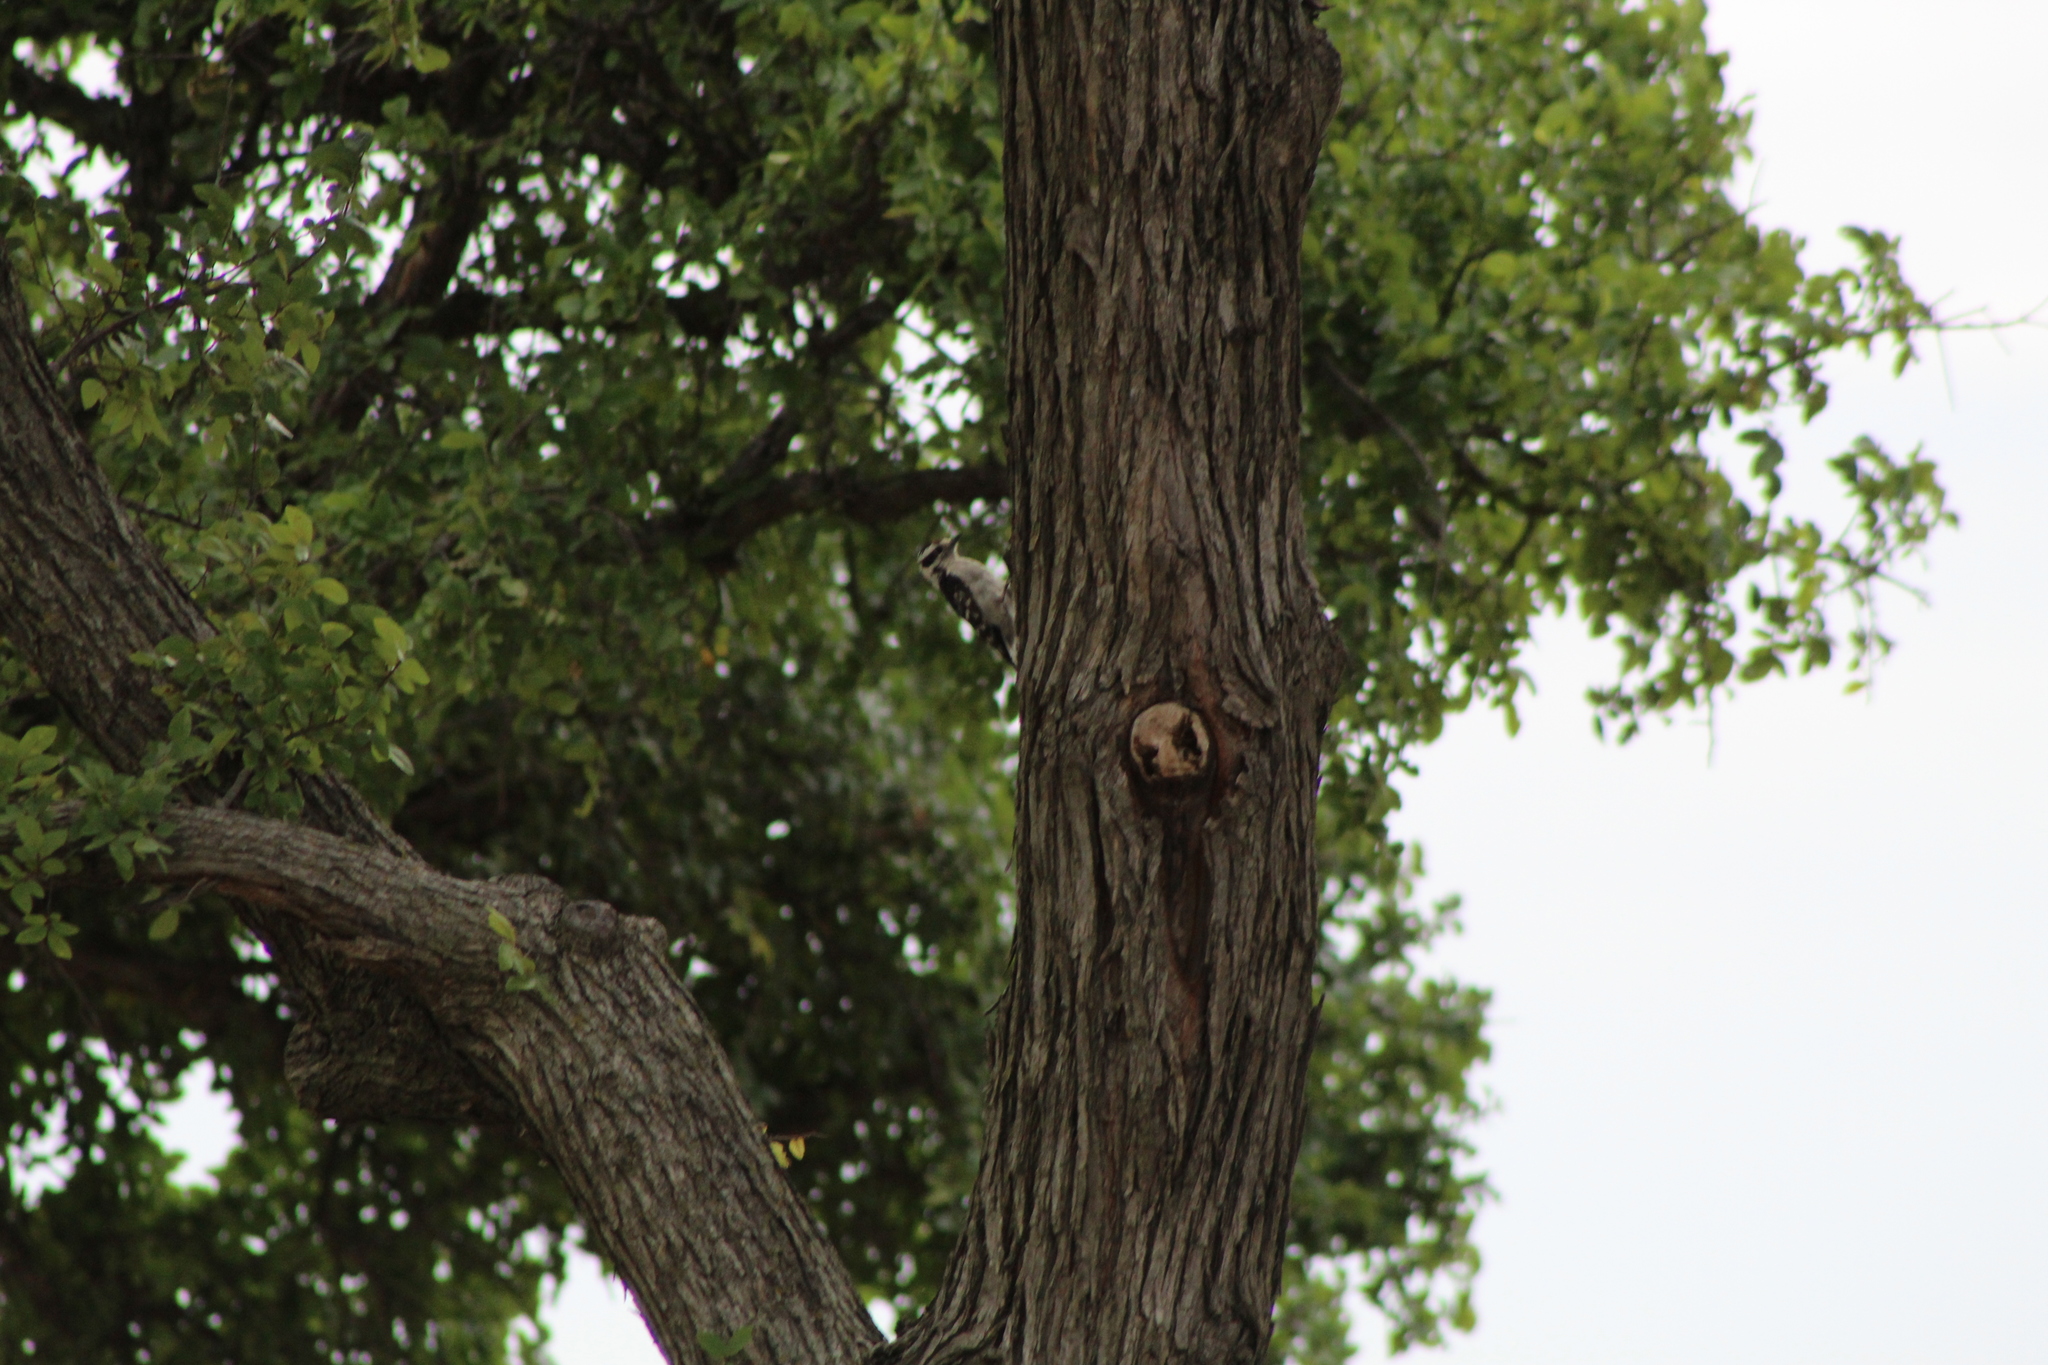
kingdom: Animalia
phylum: Chordata
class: Aves
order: Piciformes
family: Picidae
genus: Dryobates
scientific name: Dryobates pubescens
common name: Downy woodpecker
